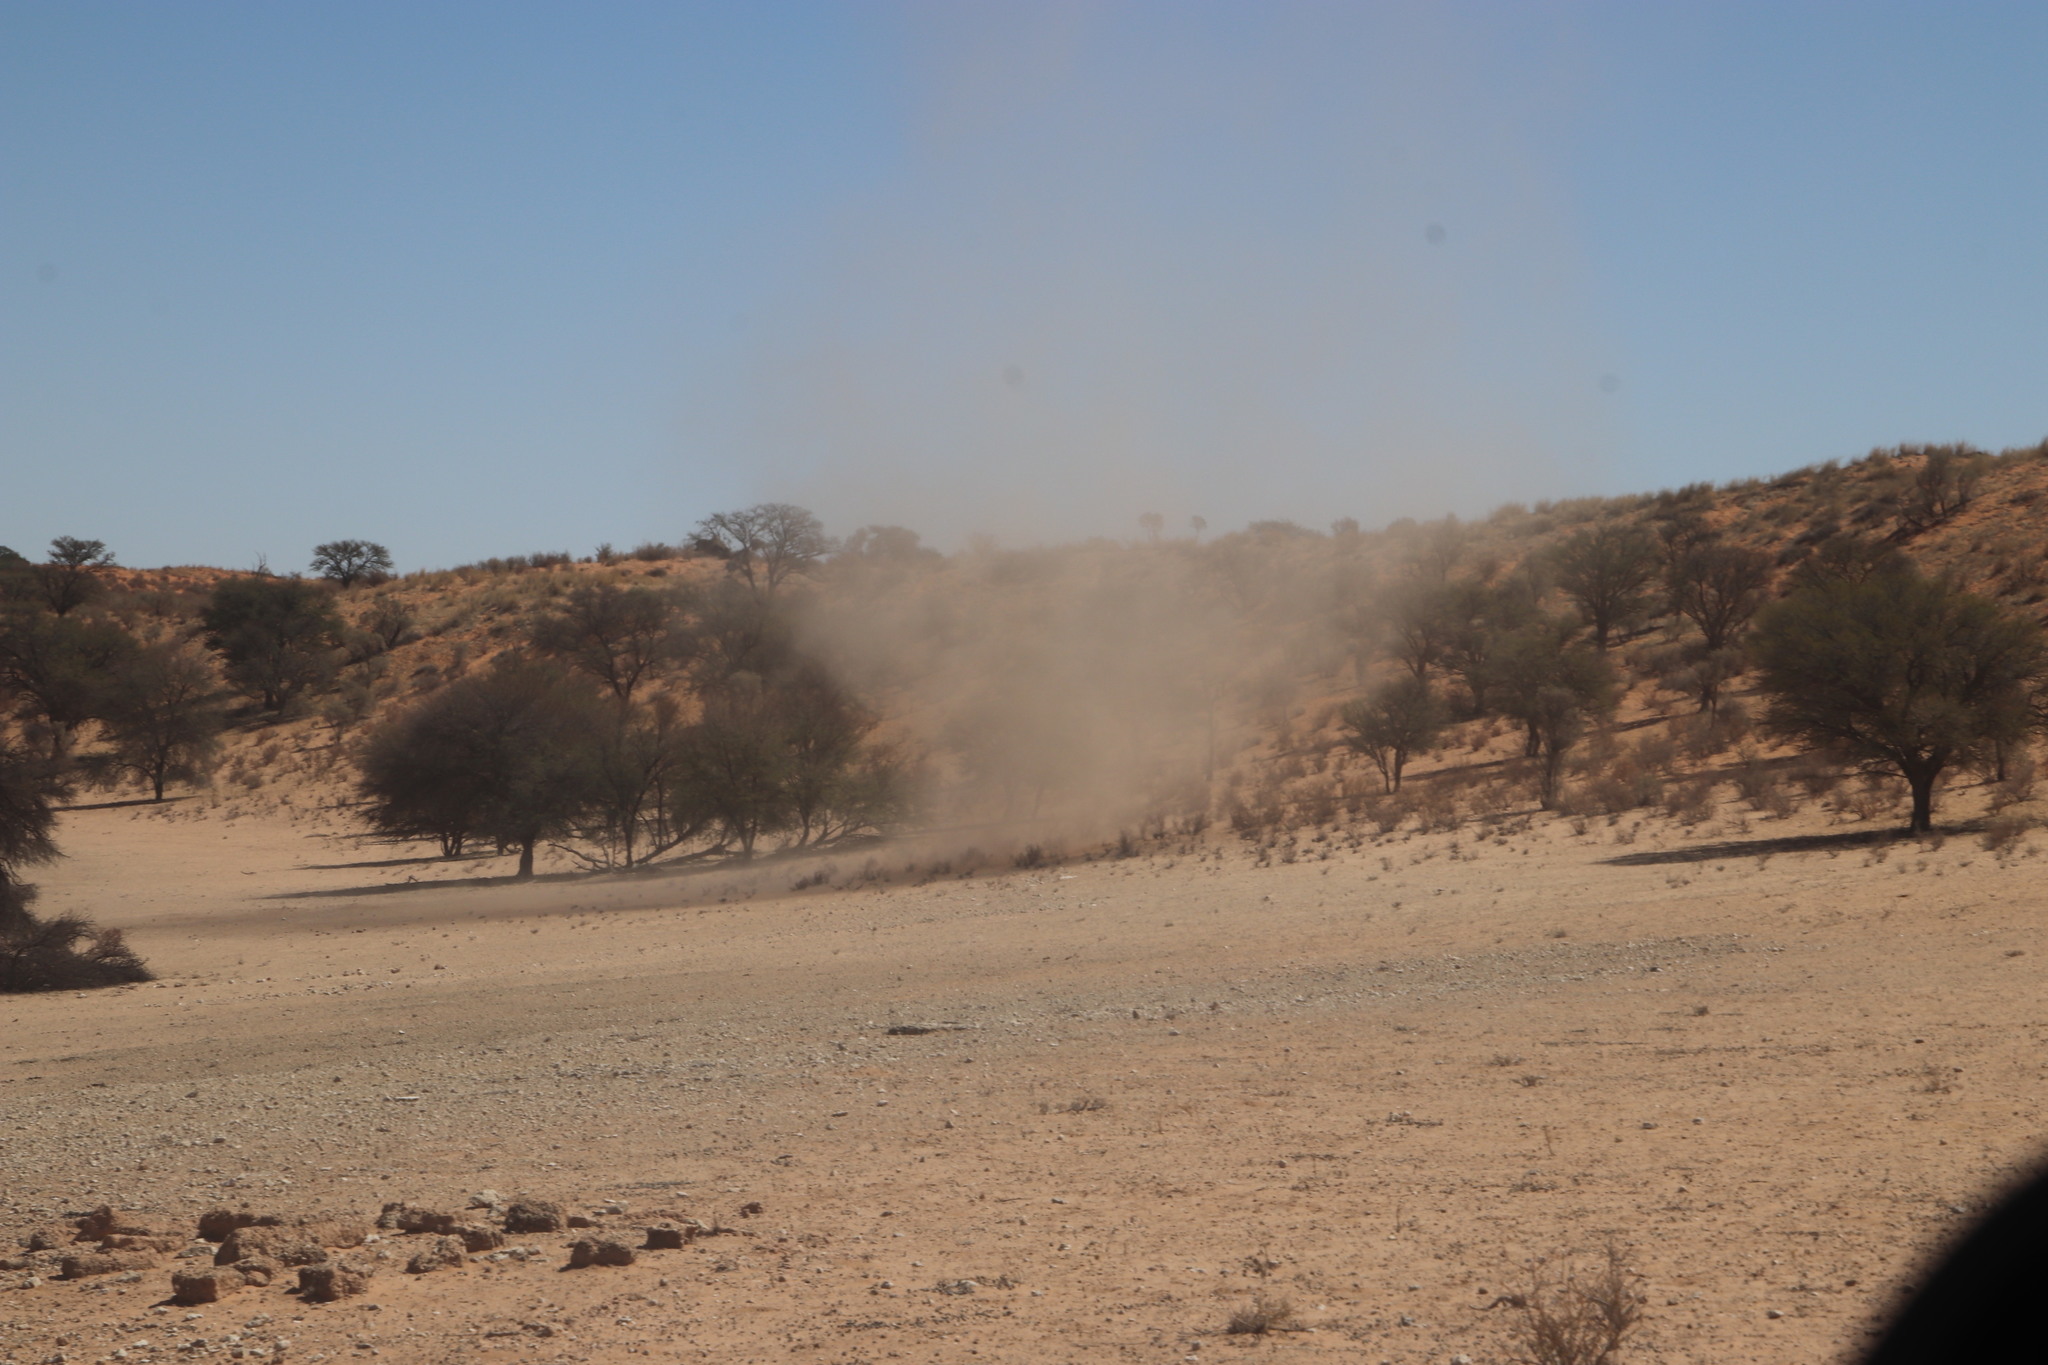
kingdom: Plantae
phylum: Tracheophyta
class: Magnoliopsida
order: Fabales
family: Fabaceae
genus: Vachellia
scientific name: Vachellia erioloba
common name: Camel thorn
